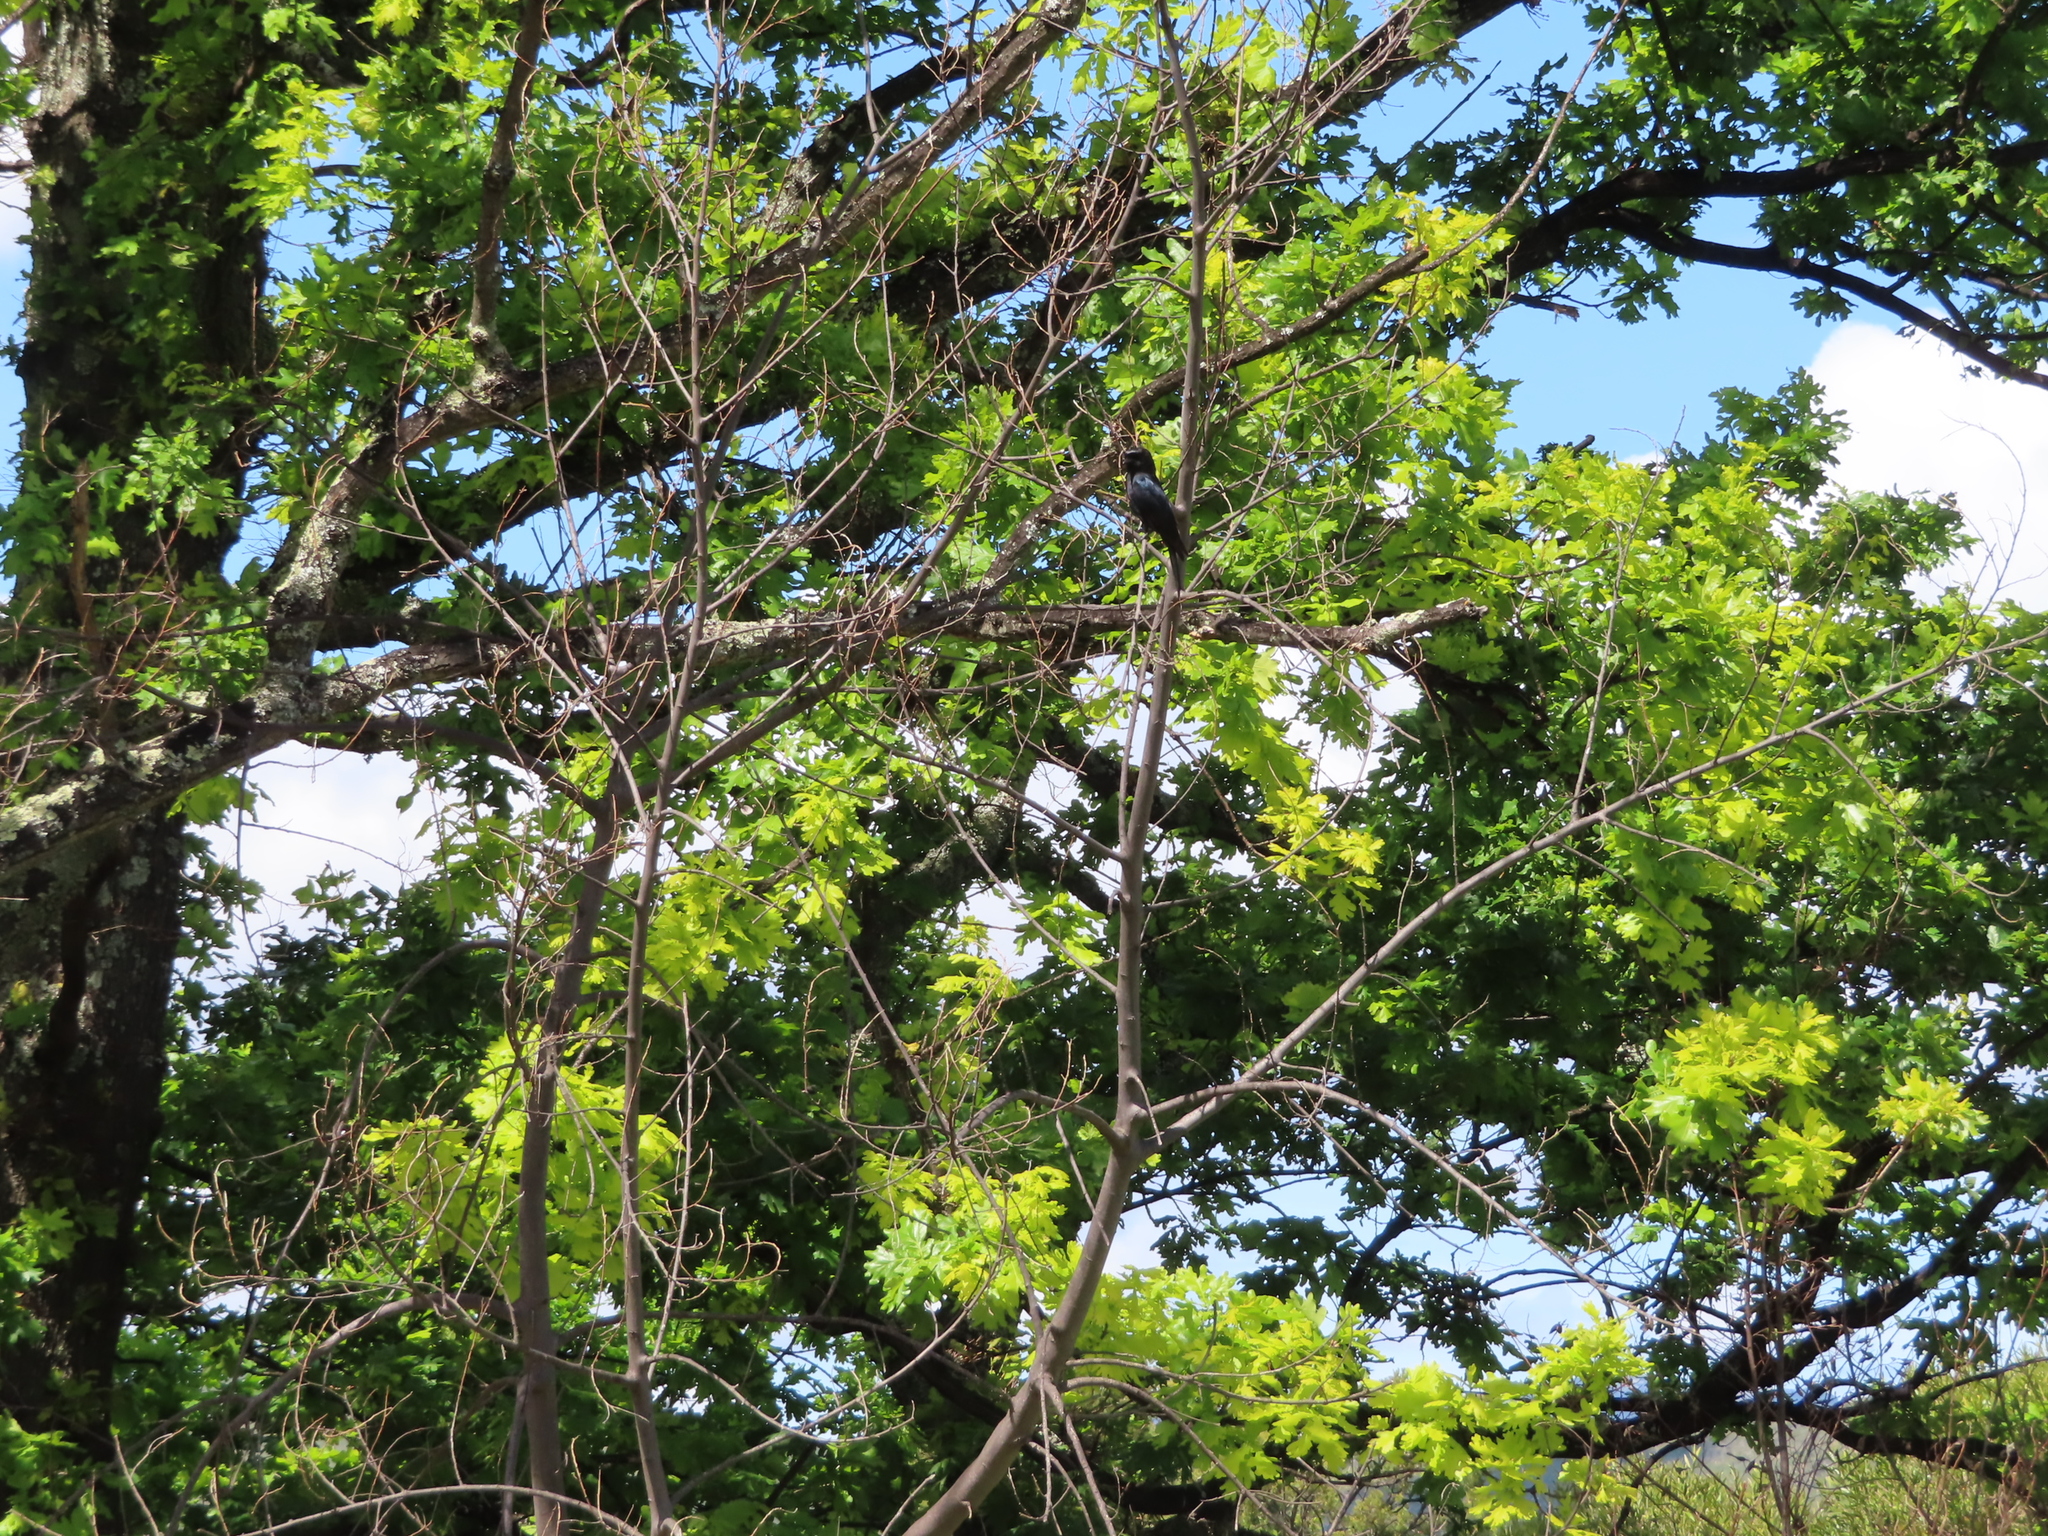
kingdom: Plantae
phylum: Tracheophyta
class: Magnoliopsida
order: Fagales
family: Fagaceae
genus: Quercus
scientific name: Quercus robur
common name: Pedunculate oak
